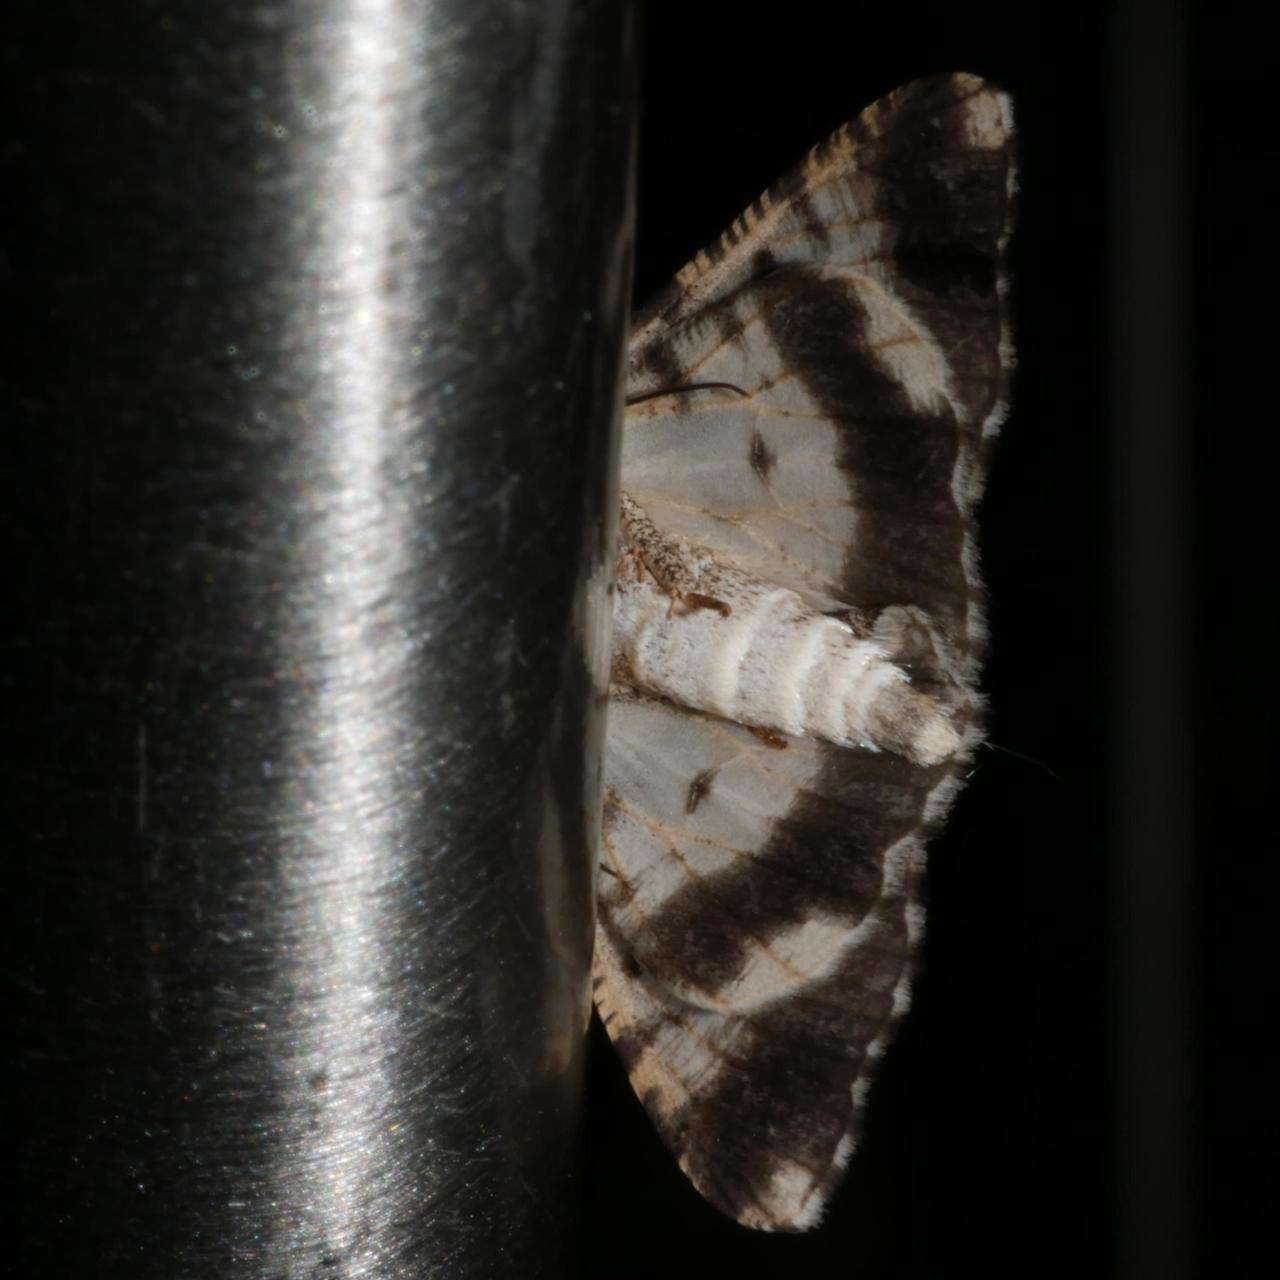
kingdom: Animalia
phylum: Arthropoda
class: Insecta
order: Lepidoptera
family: Geometridae
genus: Gastrinodes
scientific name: Gastrinodes argoplaca
